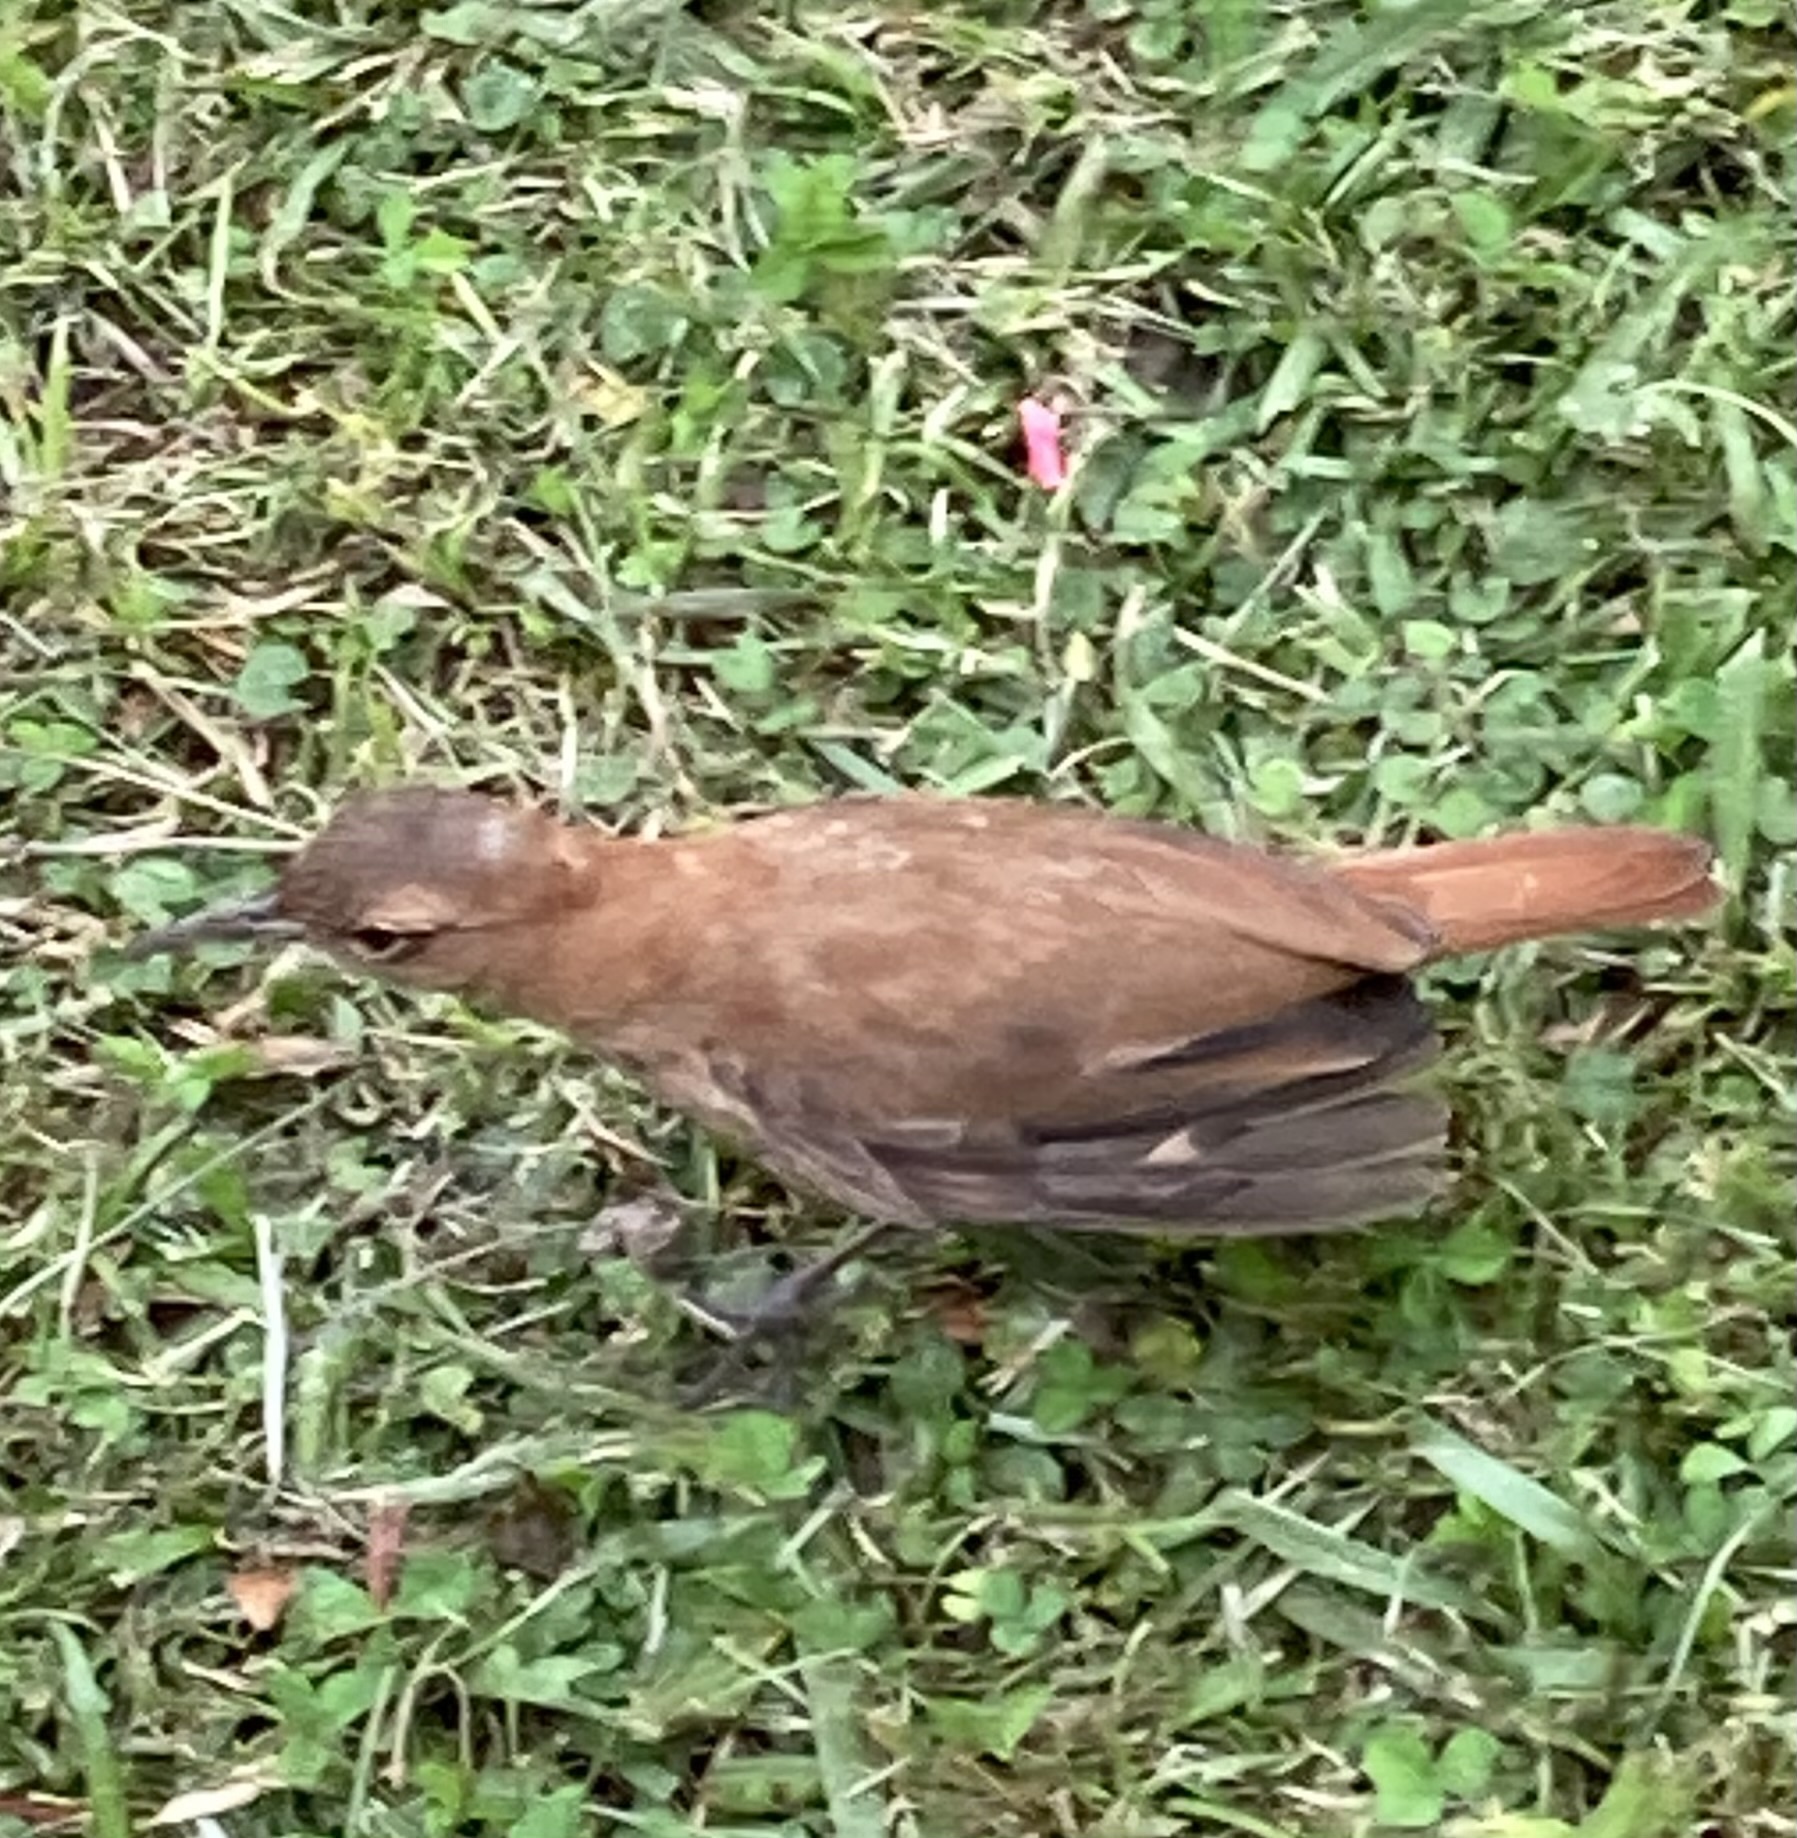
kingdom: Animalia
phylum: Chordata
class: Aves
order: Passeriformes
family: Furnariidae
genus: Furnarius
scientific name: Furnarius rufus
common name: Rufous hornero
